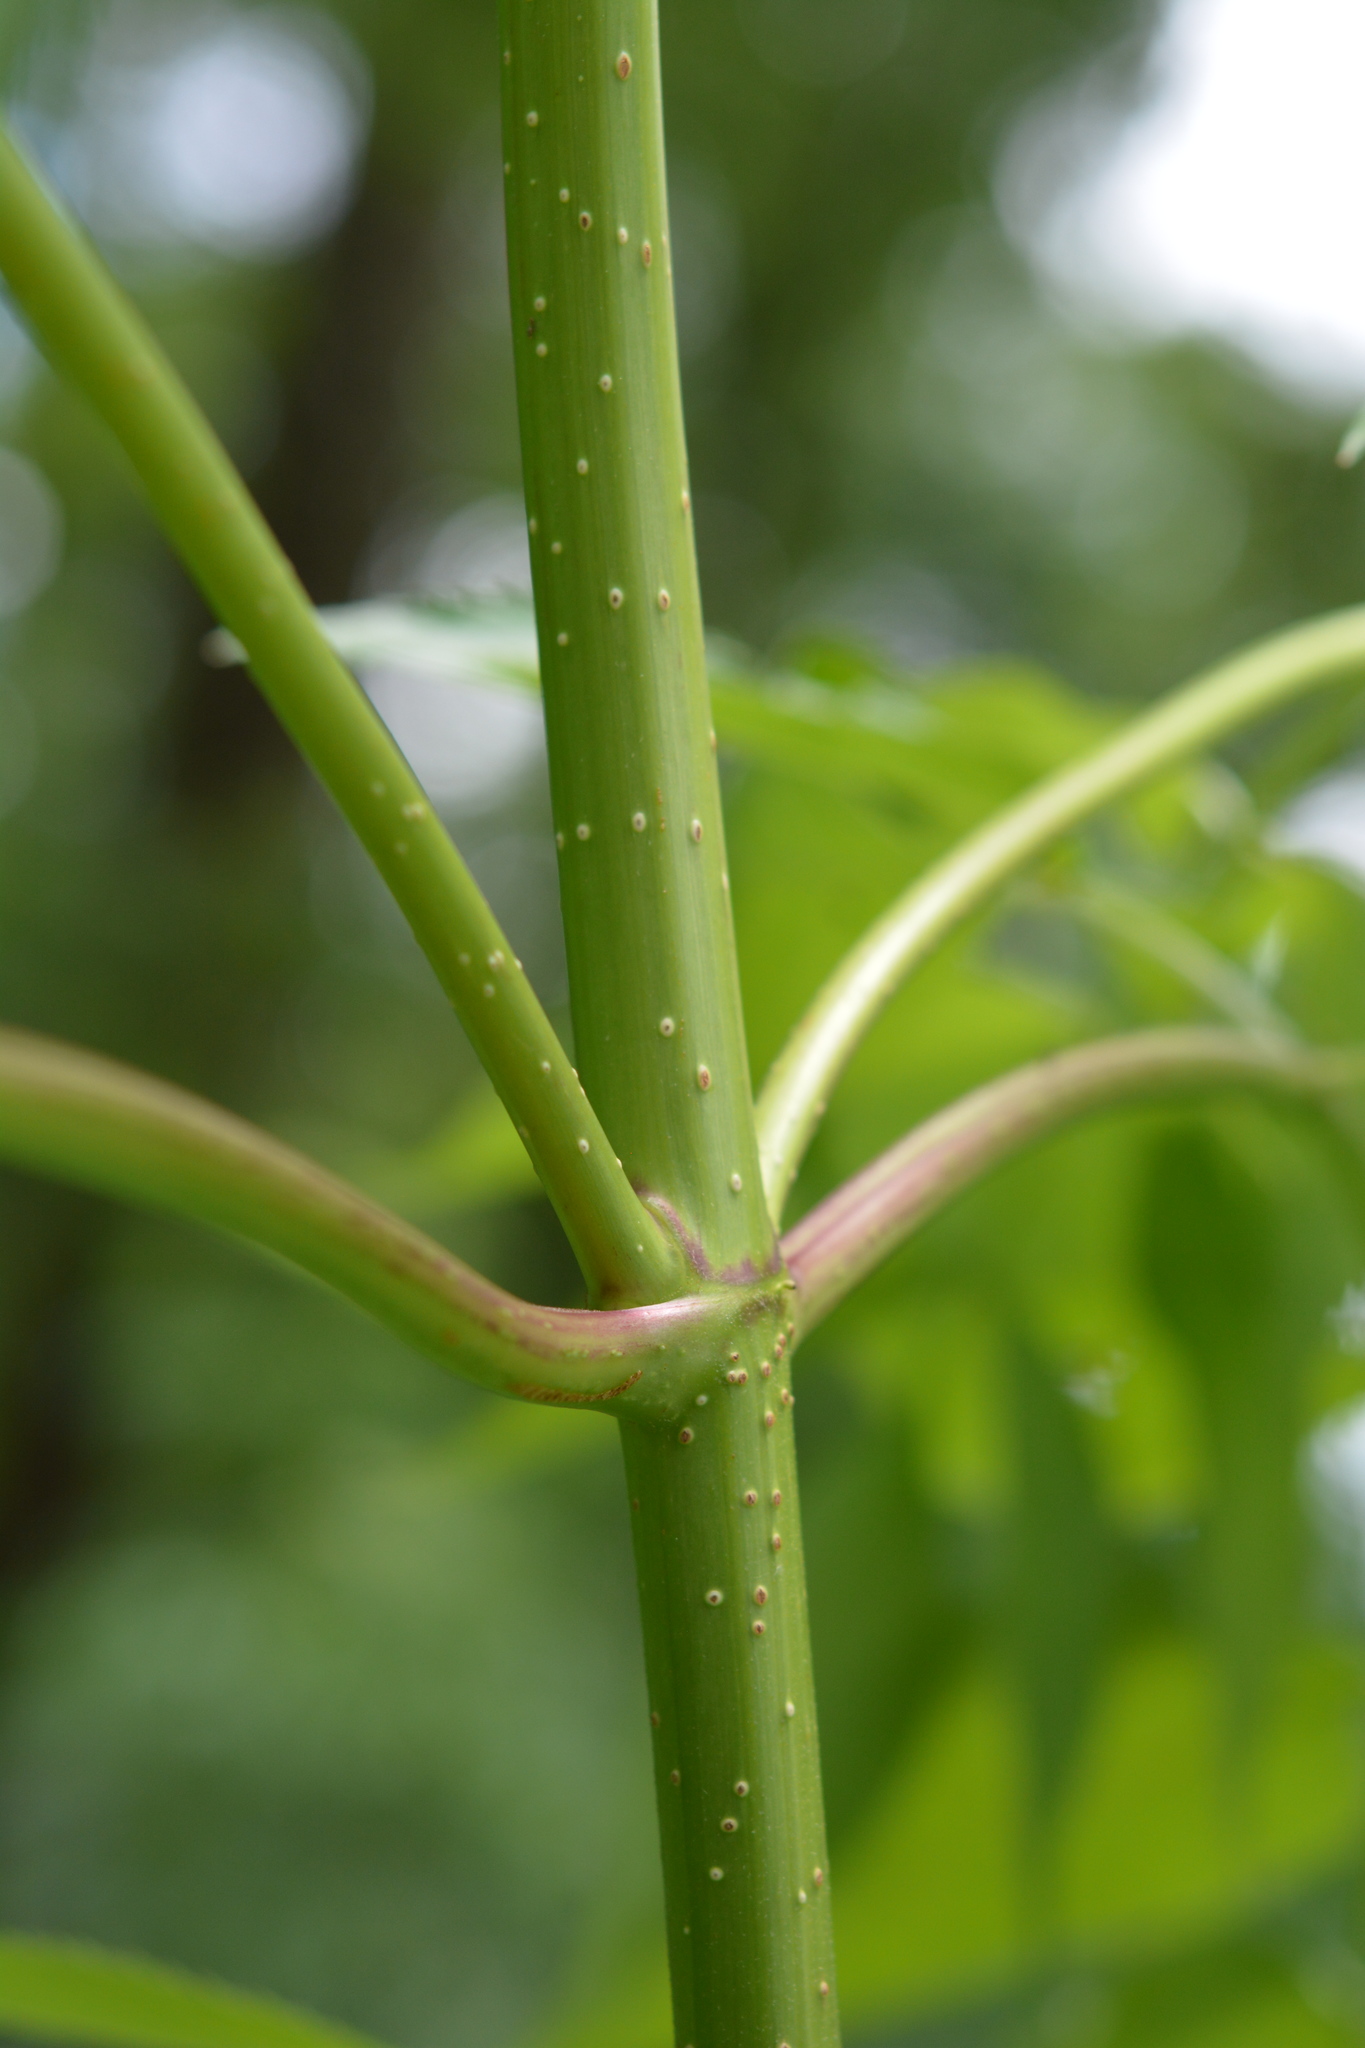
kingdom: Plantae
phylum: Tracheophyta
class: Magnoliopsida
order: Dipsacales
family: Viburnaceae
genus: Sambucus
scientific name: Sambucus canadensis
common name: American elder
